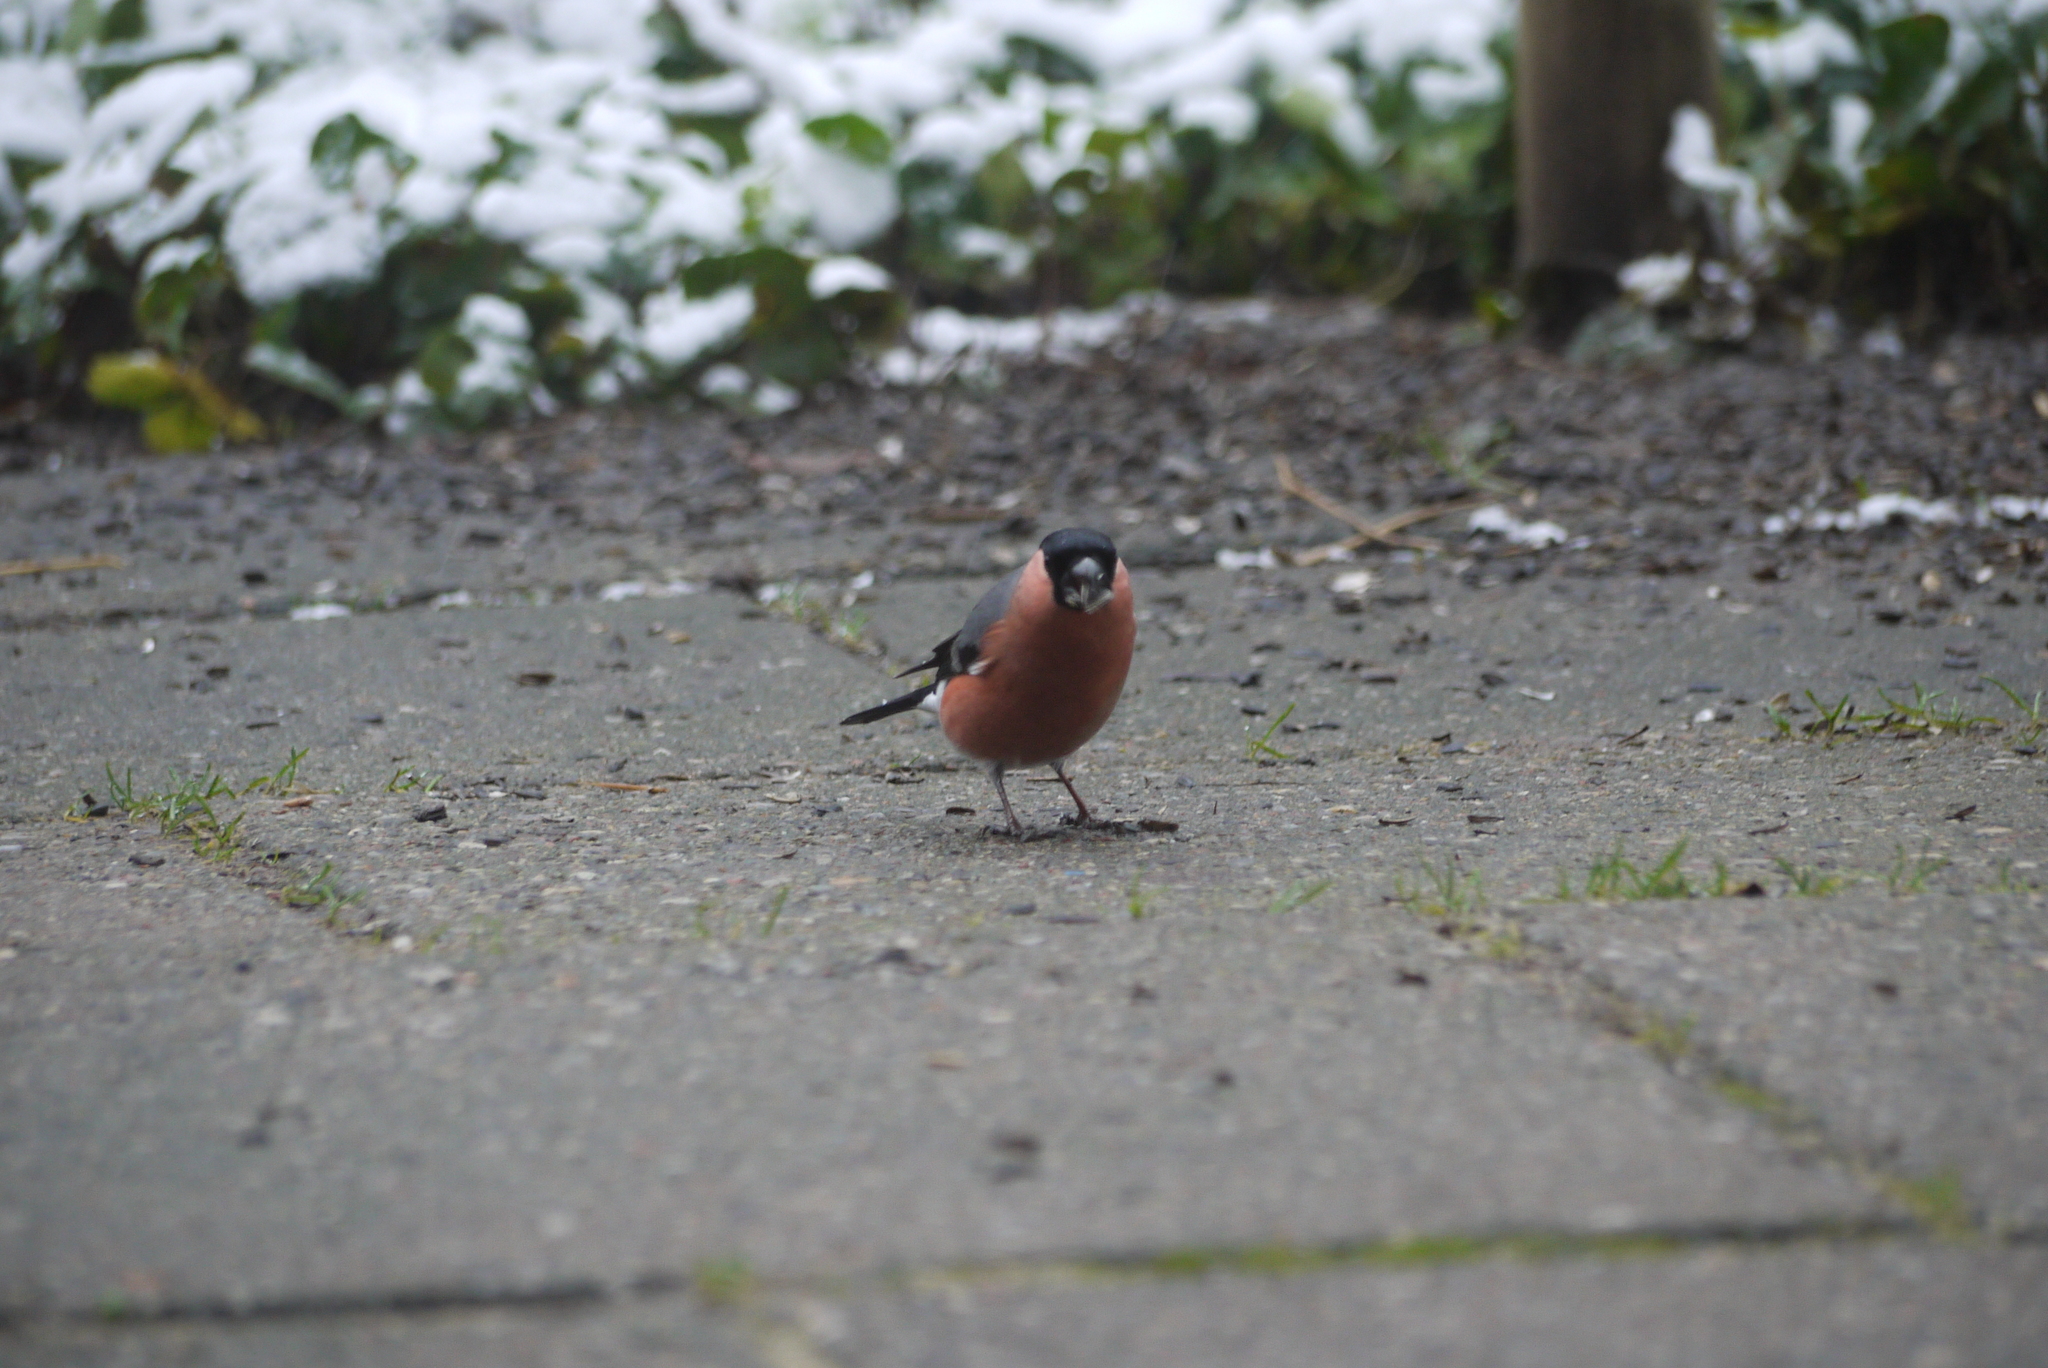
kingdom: Animalia
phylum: Chordata
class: Aves
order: Passeriformes
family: Fringillidae
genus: Pyrrhula
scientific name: Pyrrhula pyrrhula
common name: Eurasian bullfinch
